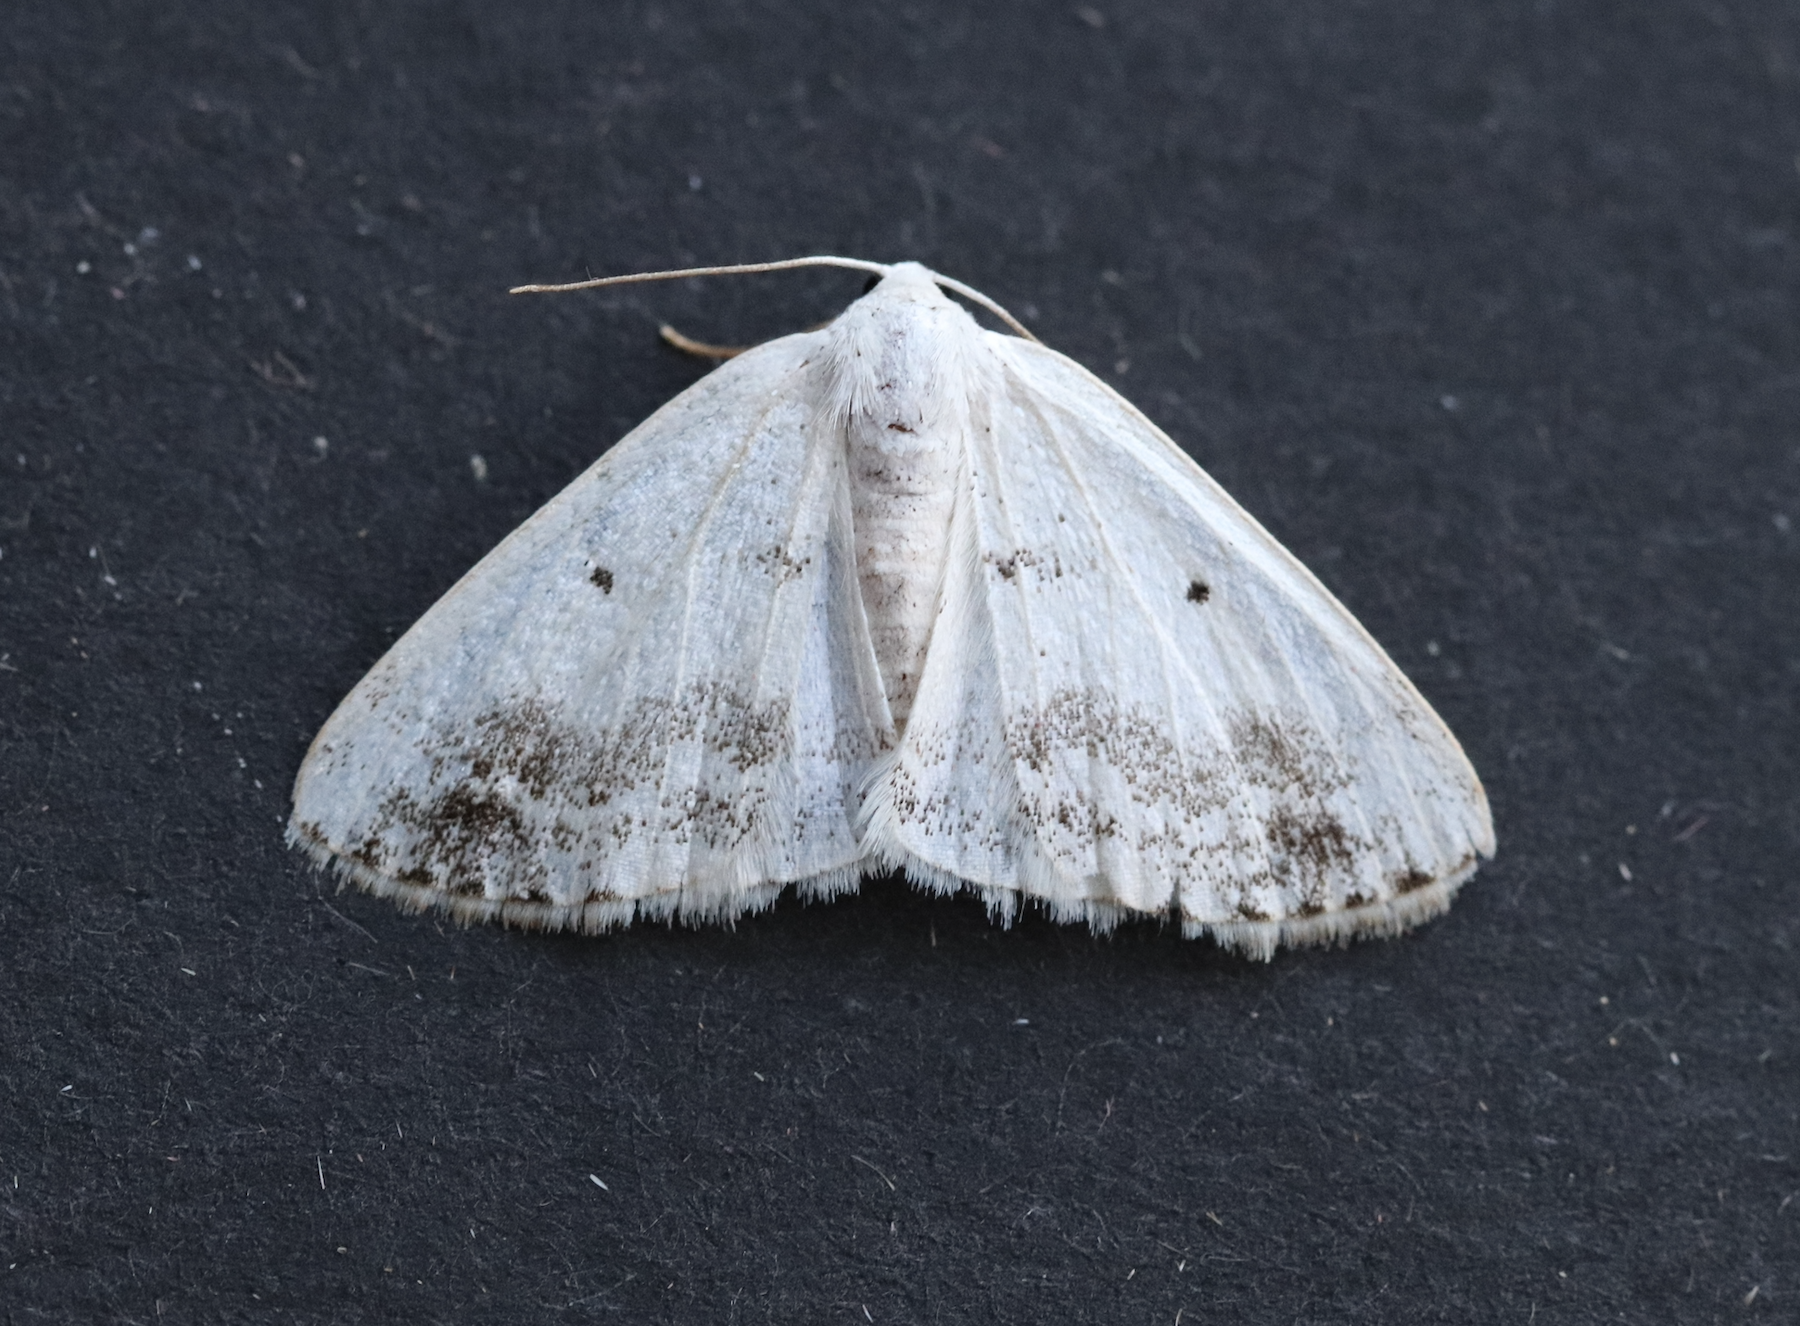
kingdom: Animalia
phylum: Arthropoda
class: Insecta
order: Lepidoptera
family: Geometridae
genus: Lomographa
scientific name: Lomographa temerata
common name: Clouded silver
